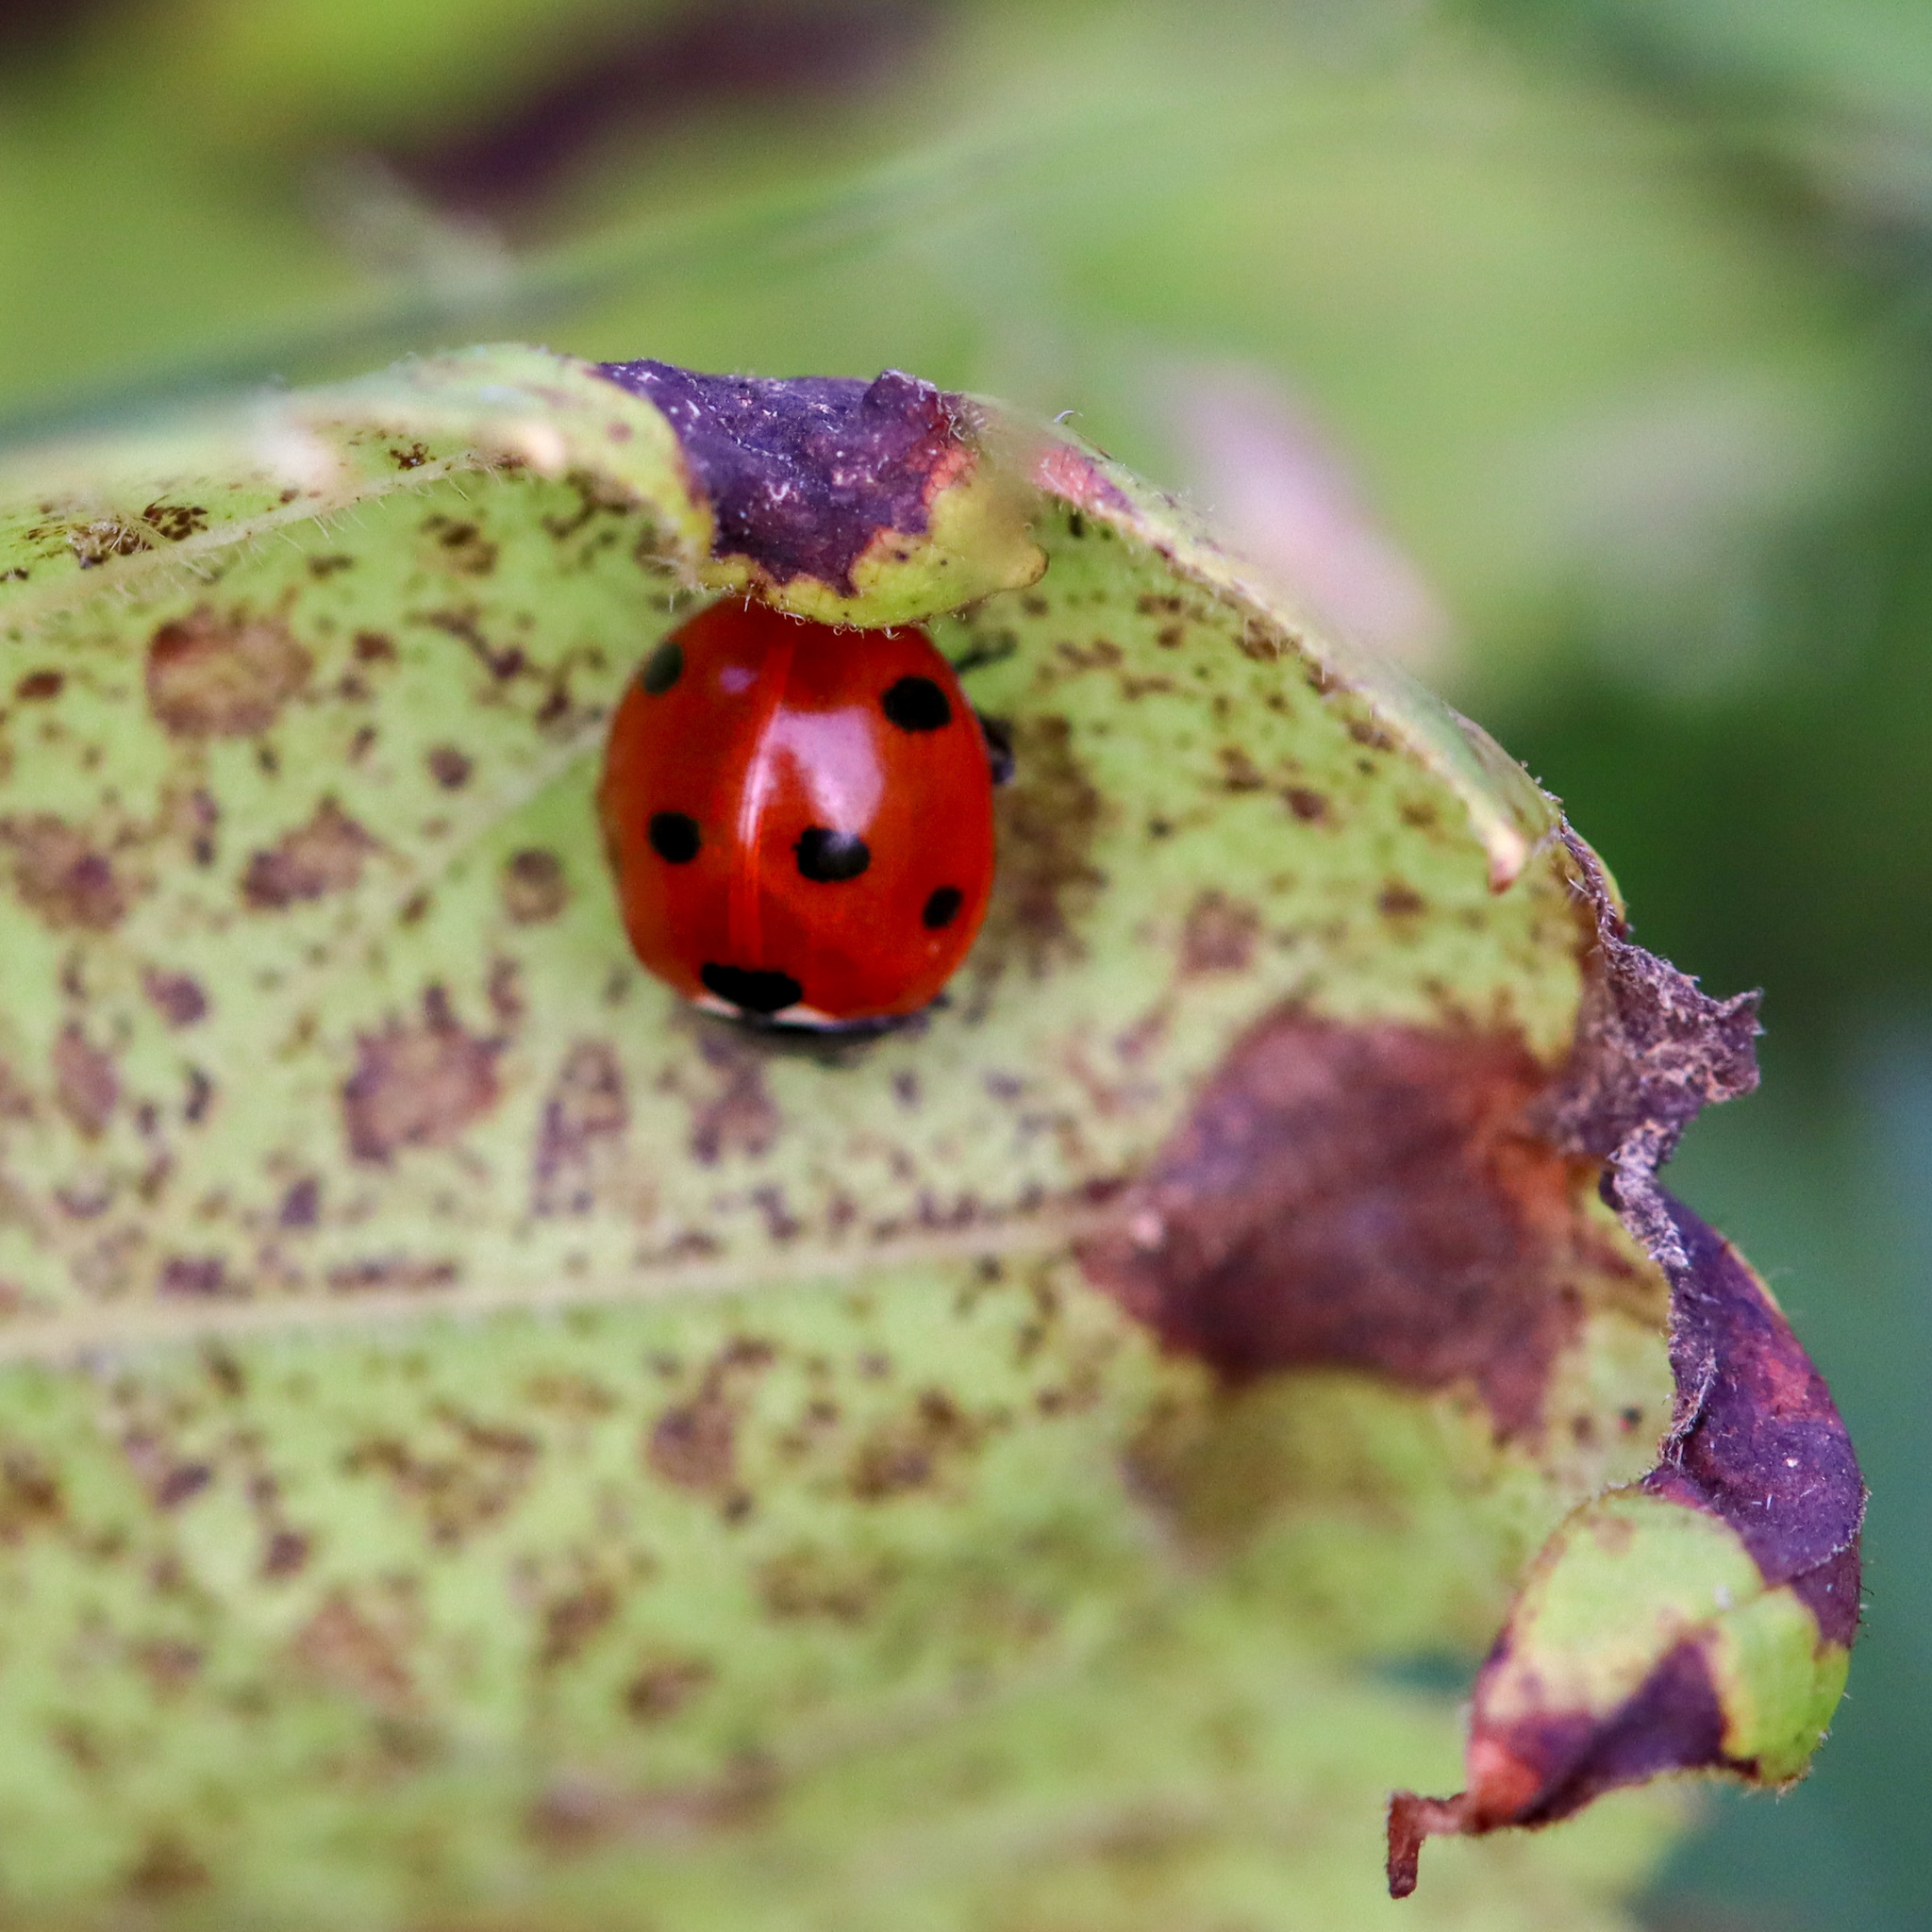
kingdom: Animalia
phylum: Arthropoda
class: Insecta
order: Coleoptera
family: Coccinellidae
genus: Coccinella
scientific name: Coccinella septempunctata
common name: Sevenspotted lady beetle
